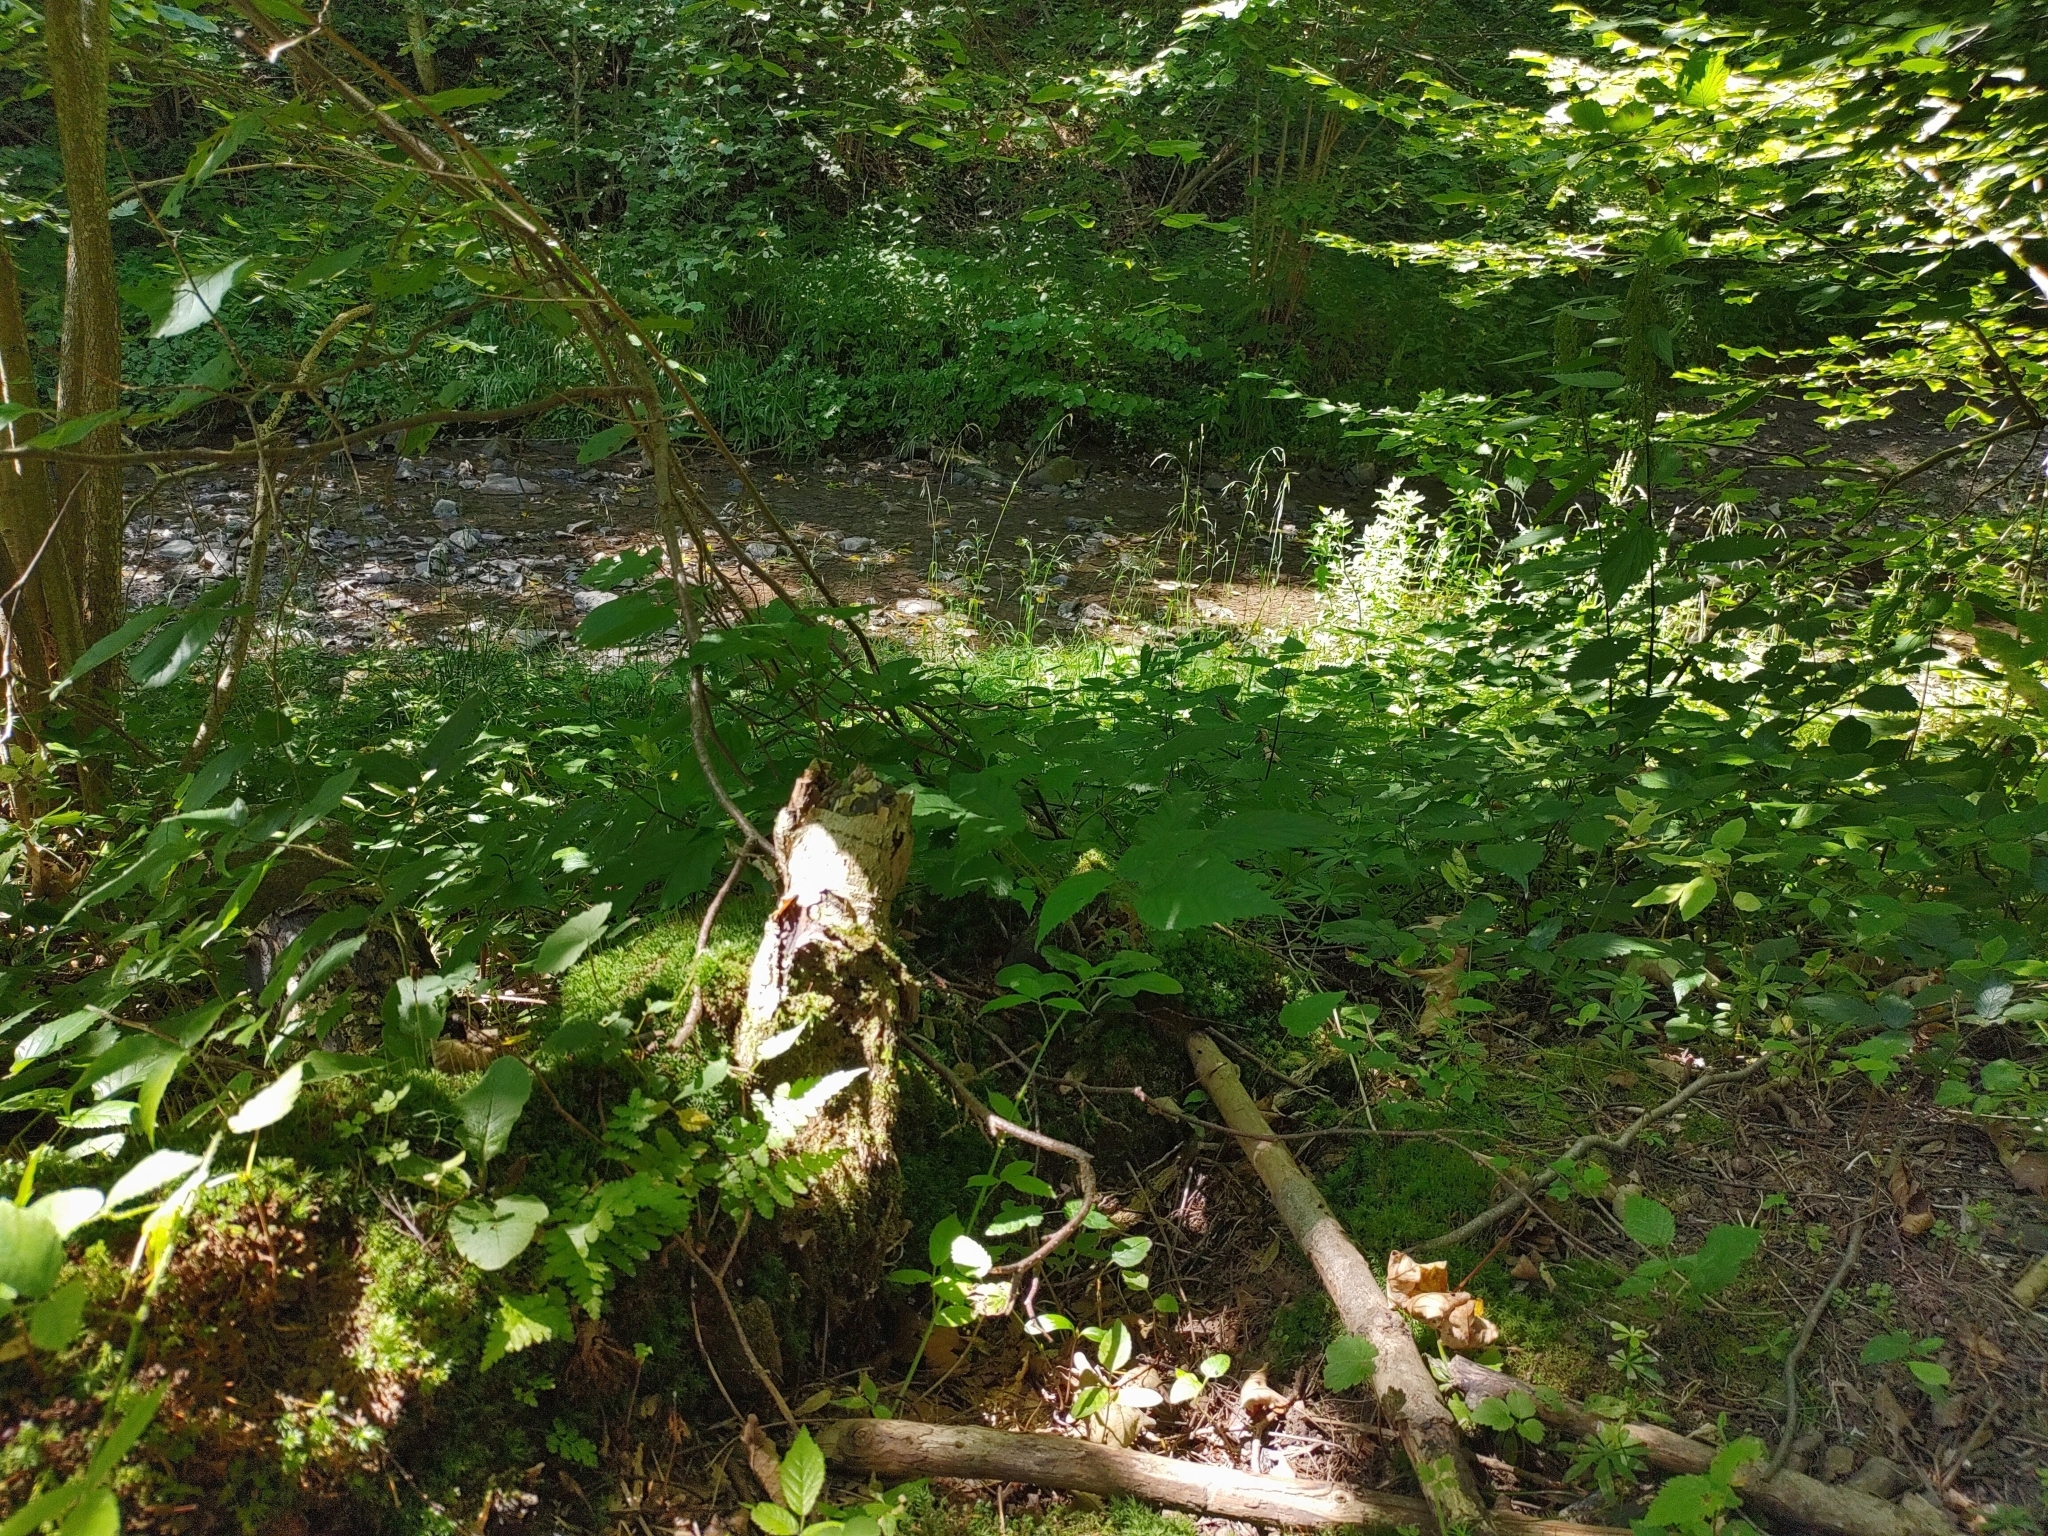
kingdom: Plantae
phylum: Bryophyta
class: Polytrichopsida
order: Polytrichales
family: Polytrichaceae
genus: Atrichum
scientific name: Atrichum undulatum
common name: Common smoothcap
